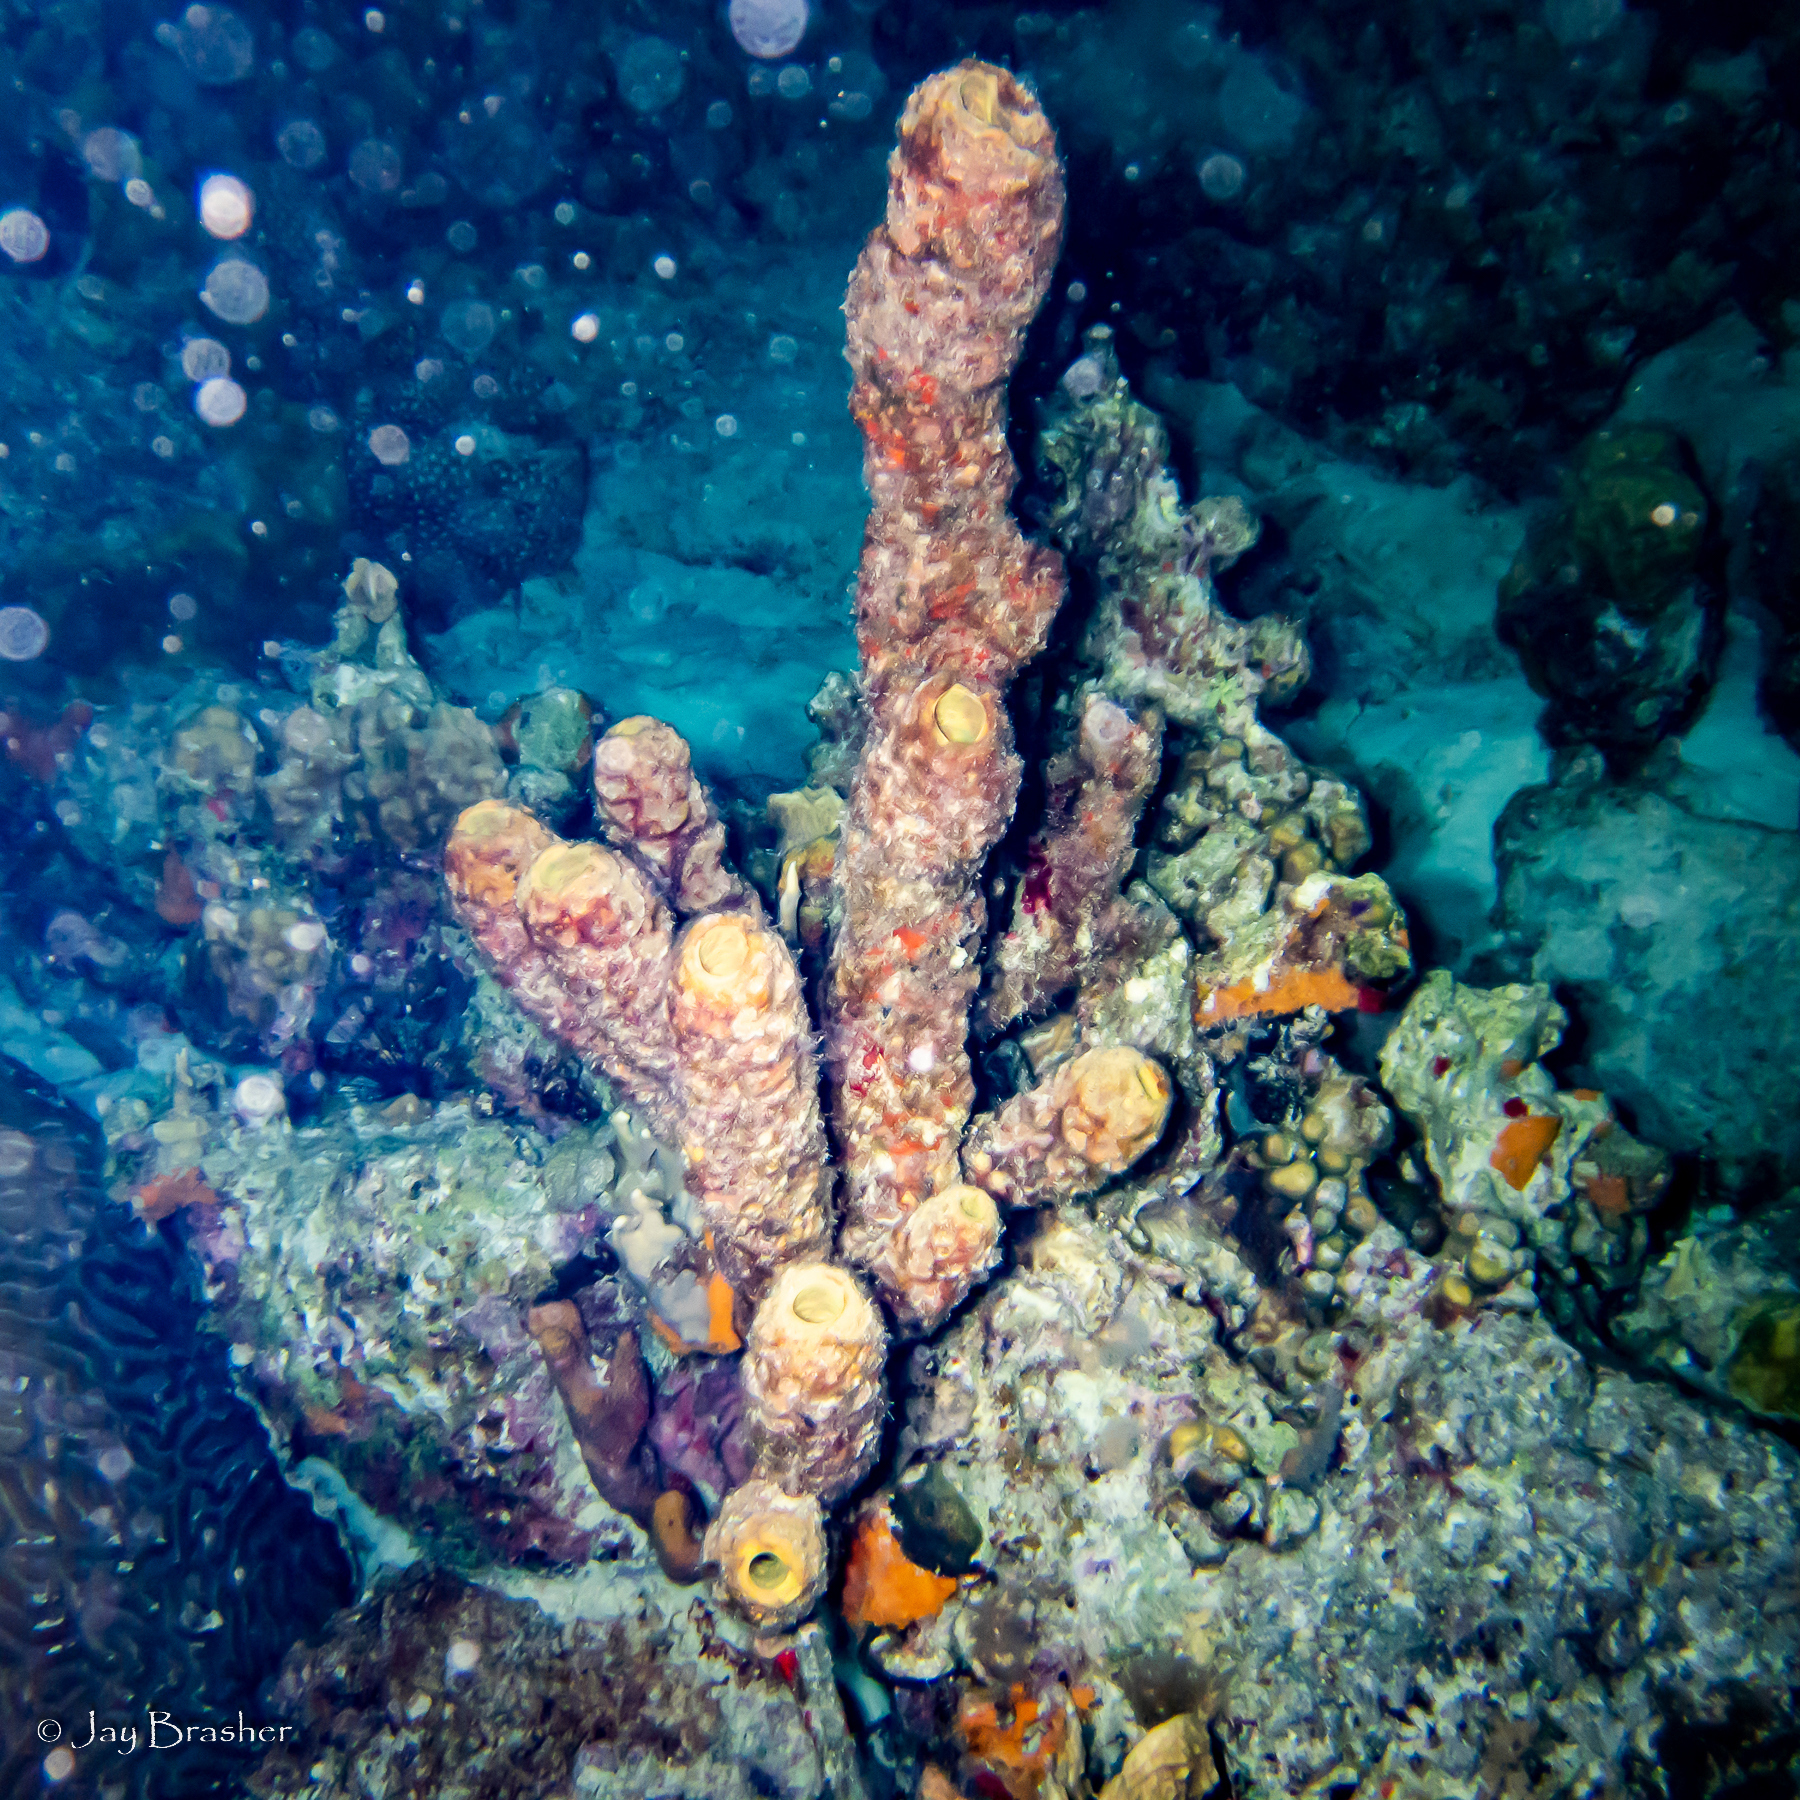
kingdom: Animalia
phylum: Porifera
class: Demospongiae
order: Verongiida
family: Aplysinidae
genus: Aplysina
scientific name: Aplysina archeri
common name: Stove-pipe sponge
